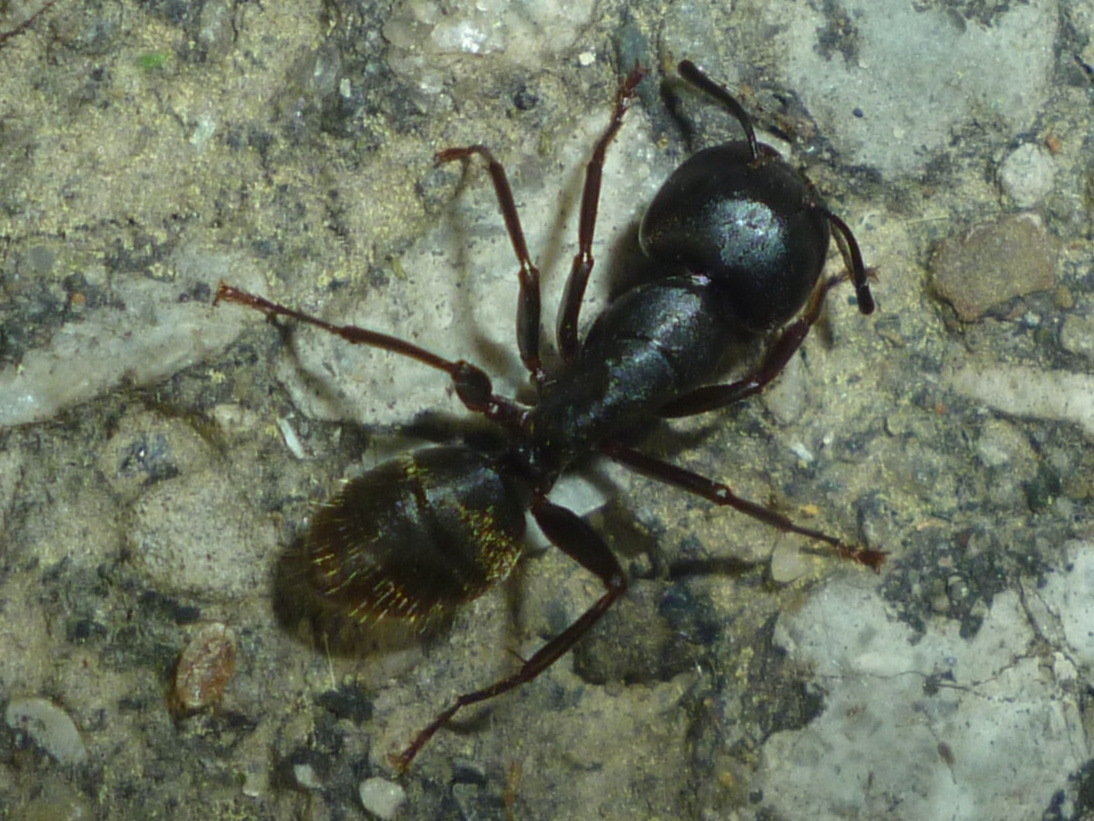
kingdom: Animalia
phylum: Arthropoda
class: Insecta
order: Hymenoptera
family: Formicidae
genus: Camponotus
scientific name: Camponotus pennsylvanicus
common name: Black carpenter ant
